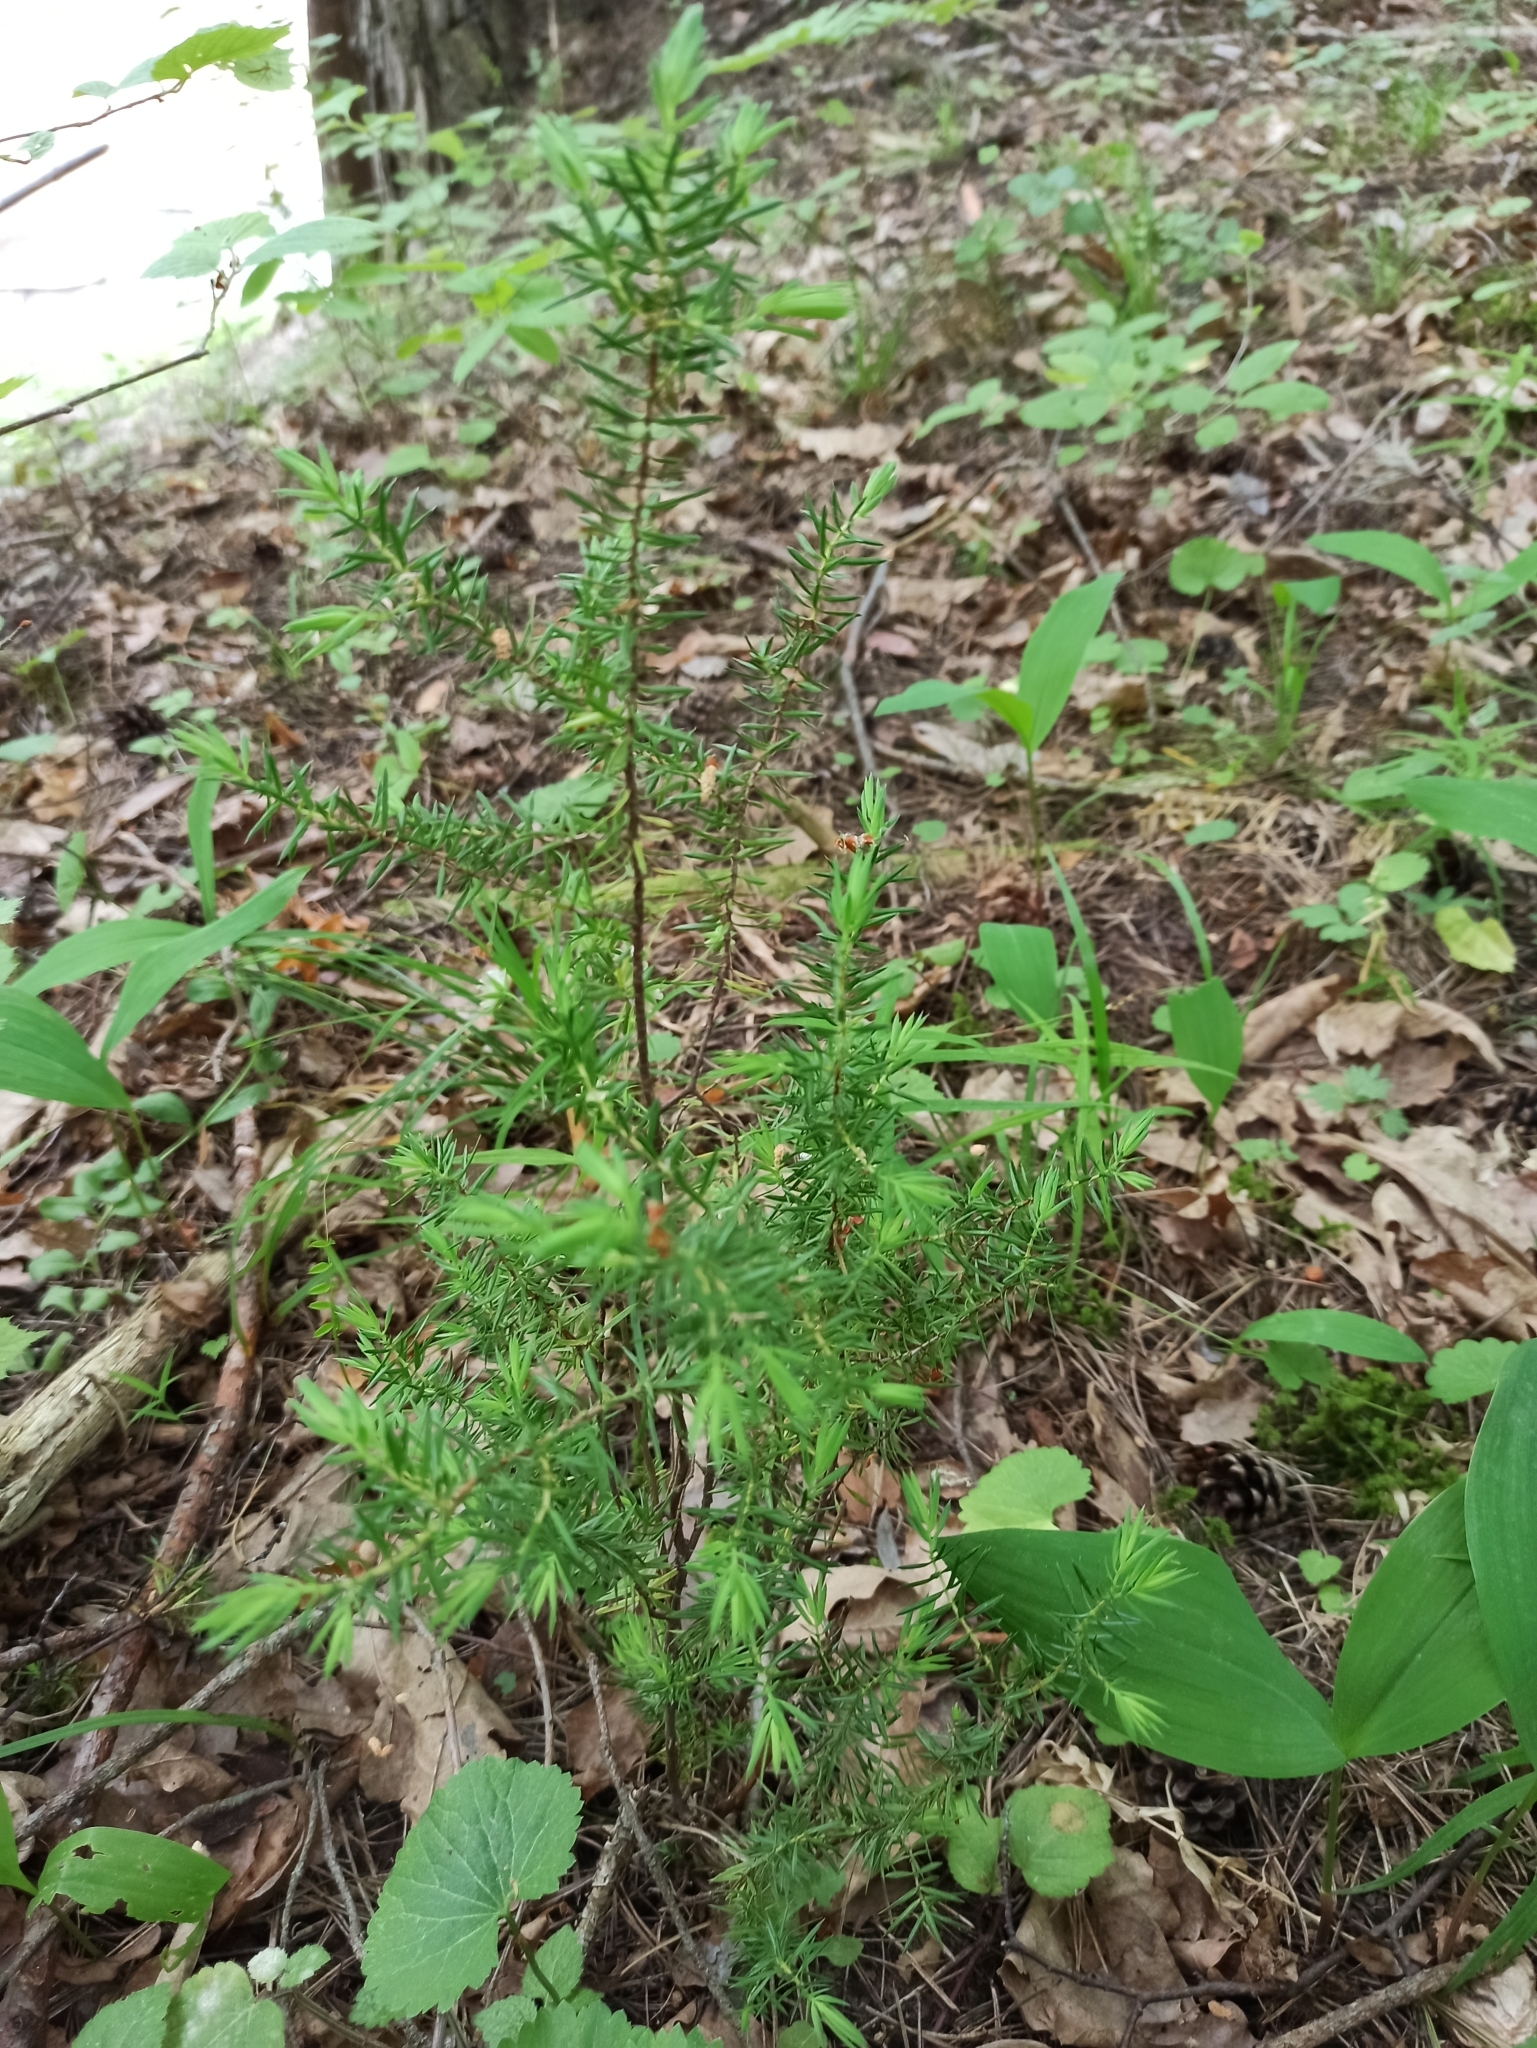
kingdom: Plantae
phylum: Tracheophyta
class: Pinopsida
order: Pinales
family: Cupressaceae
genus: Juniperus
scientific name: Juniperus communis
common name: Common juniper
